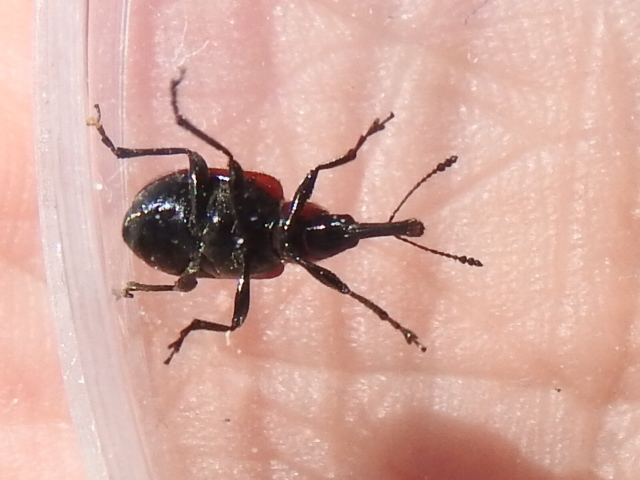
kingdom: Animalia
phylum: Arthropoda
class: Insecta
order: Coleoptera
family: Attelabidae
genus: Merhynchites
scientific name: Merhynchites wickhami
